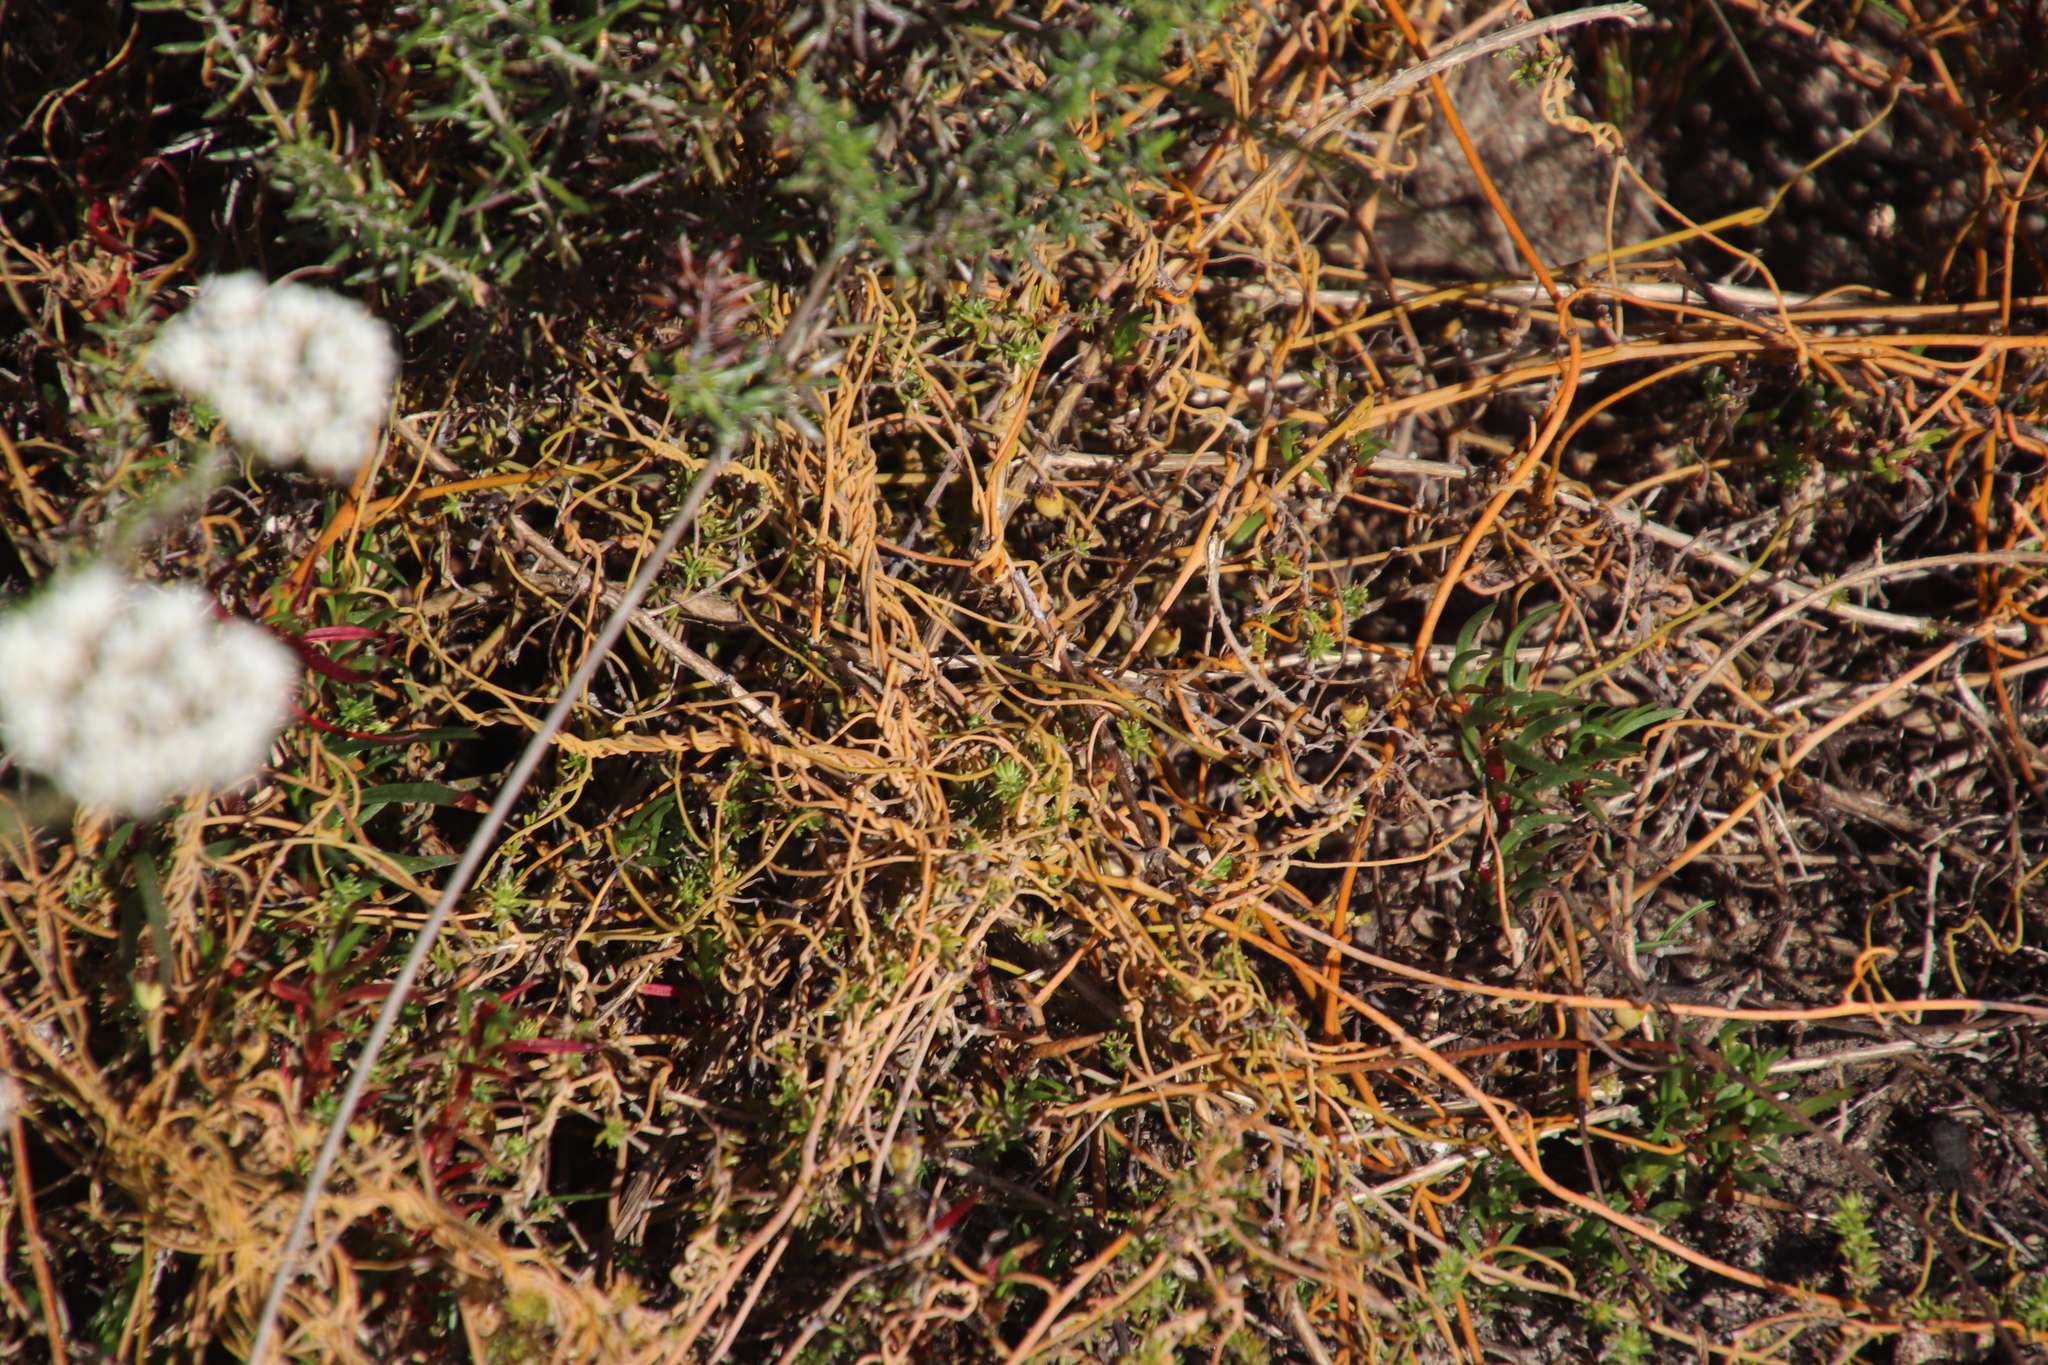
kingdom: Plantae
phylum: Tracheophyta
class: Magnoliopsida
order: Laurales
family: Lauraceae
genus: Cassytha
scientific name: Cassytha ciliolata
